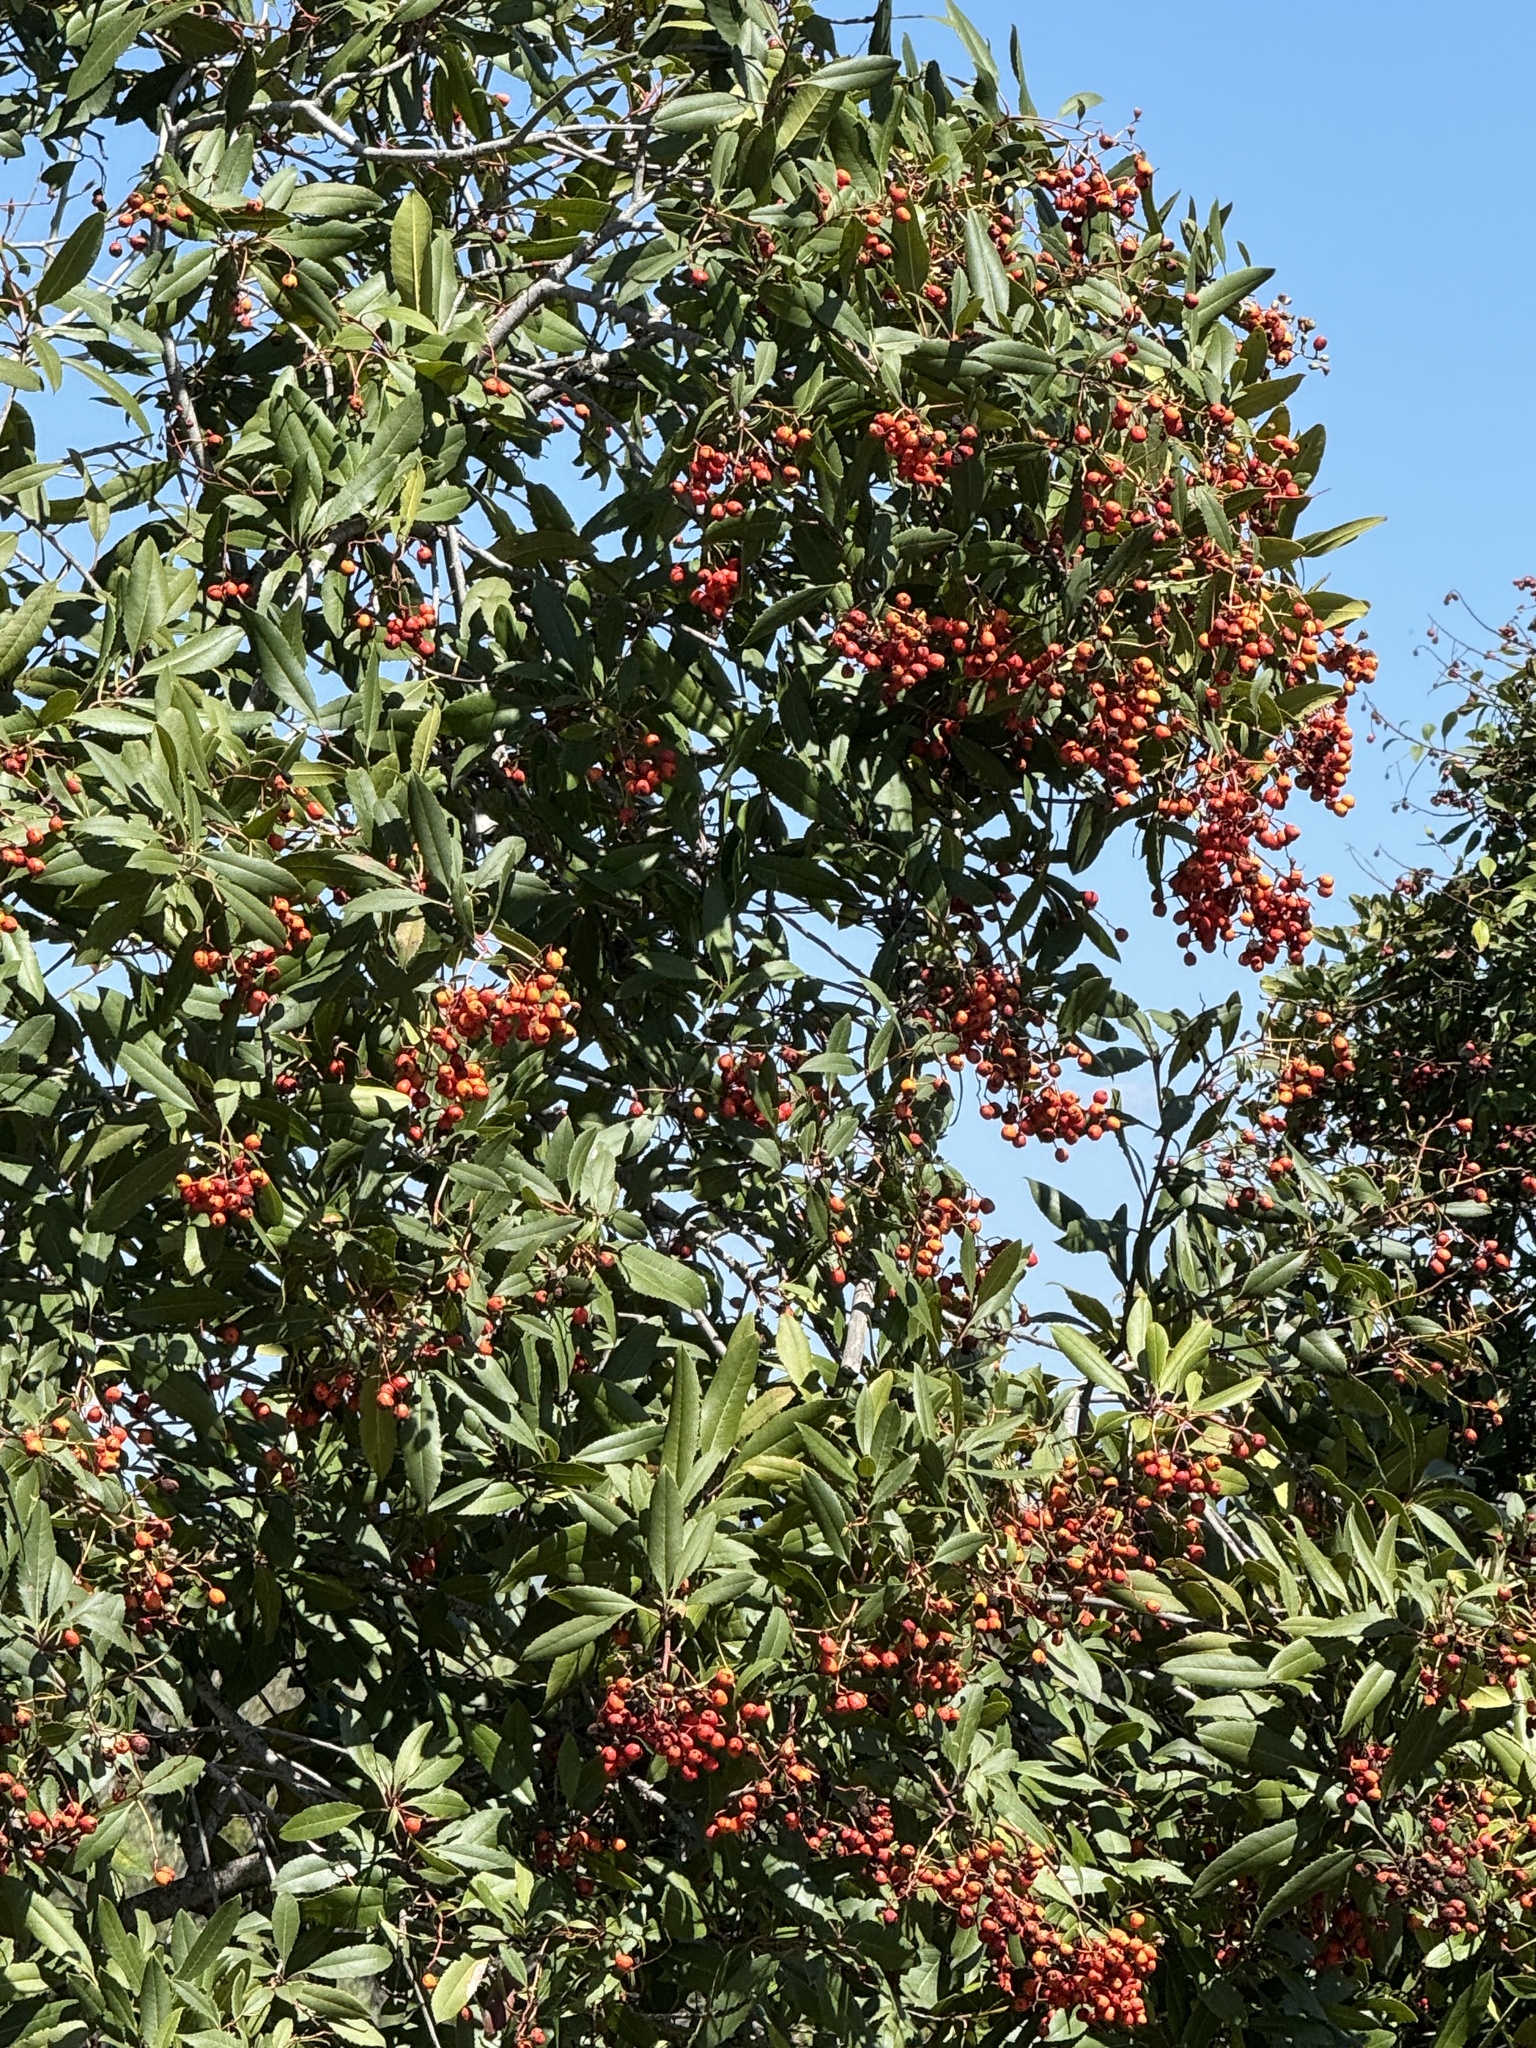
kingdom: Plantae
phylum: Tracheophyta
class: Magnoliopsida
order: Rosales
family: Rosaceae
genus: Heteromeles
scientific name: Heteromeles arbutifolia
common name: California-holly
